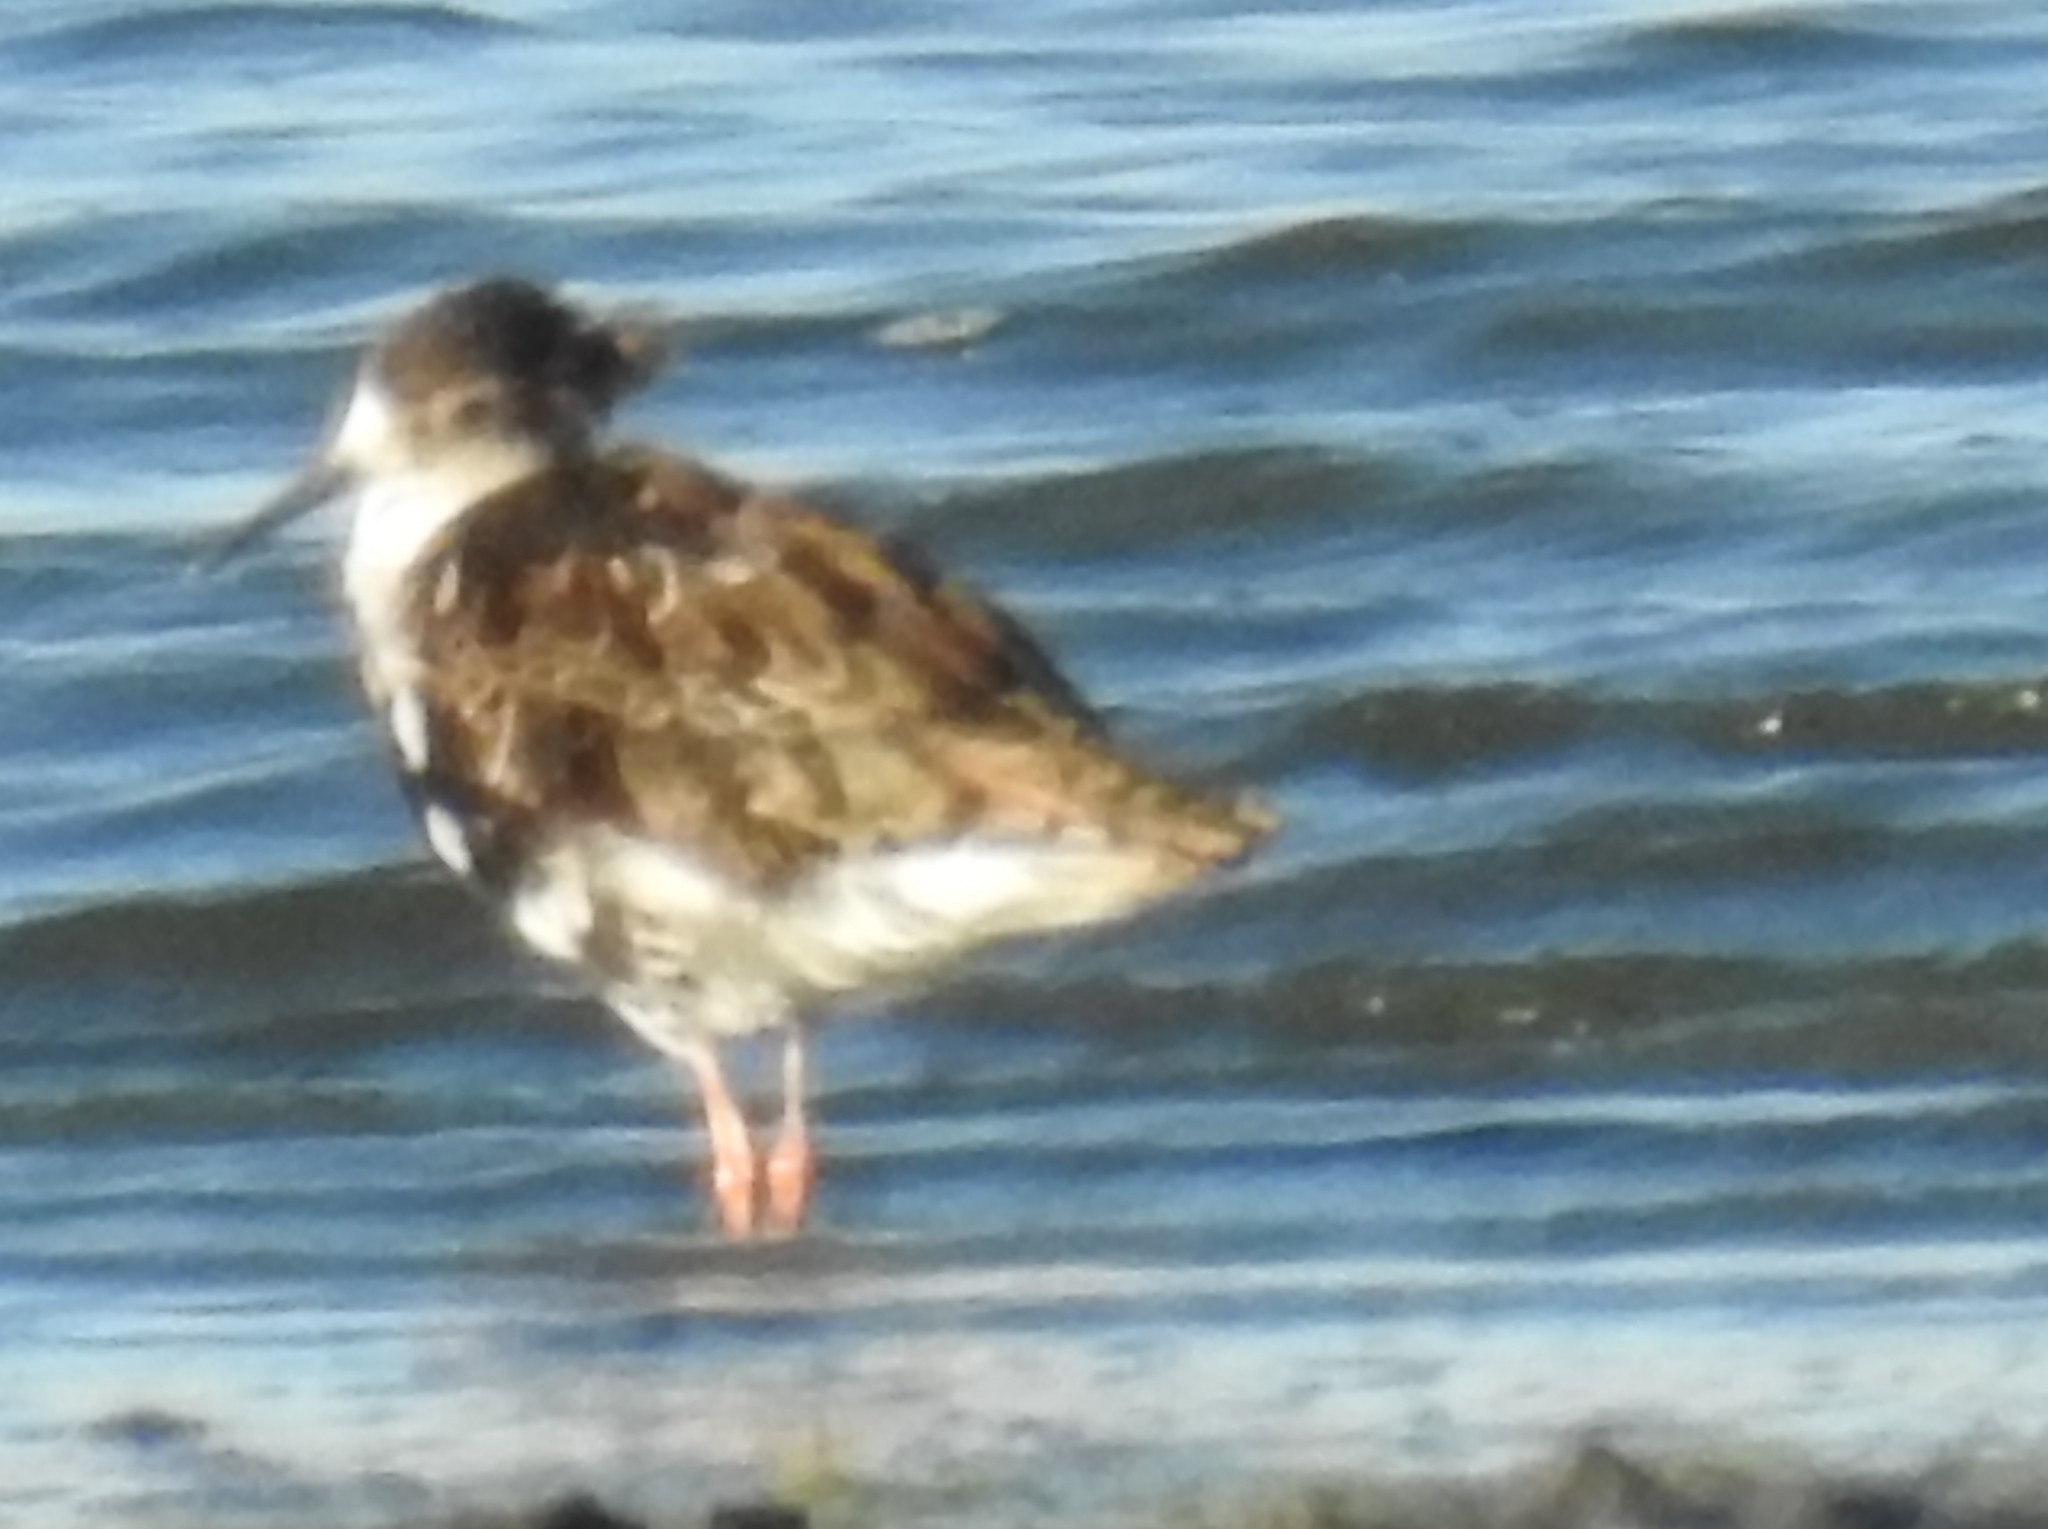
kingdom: Animalia
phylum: Chordata
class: Aves
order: Charadriiformes
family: Scolopacidae
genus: Calidris
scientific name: Calidris pugnax
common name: Ruff
